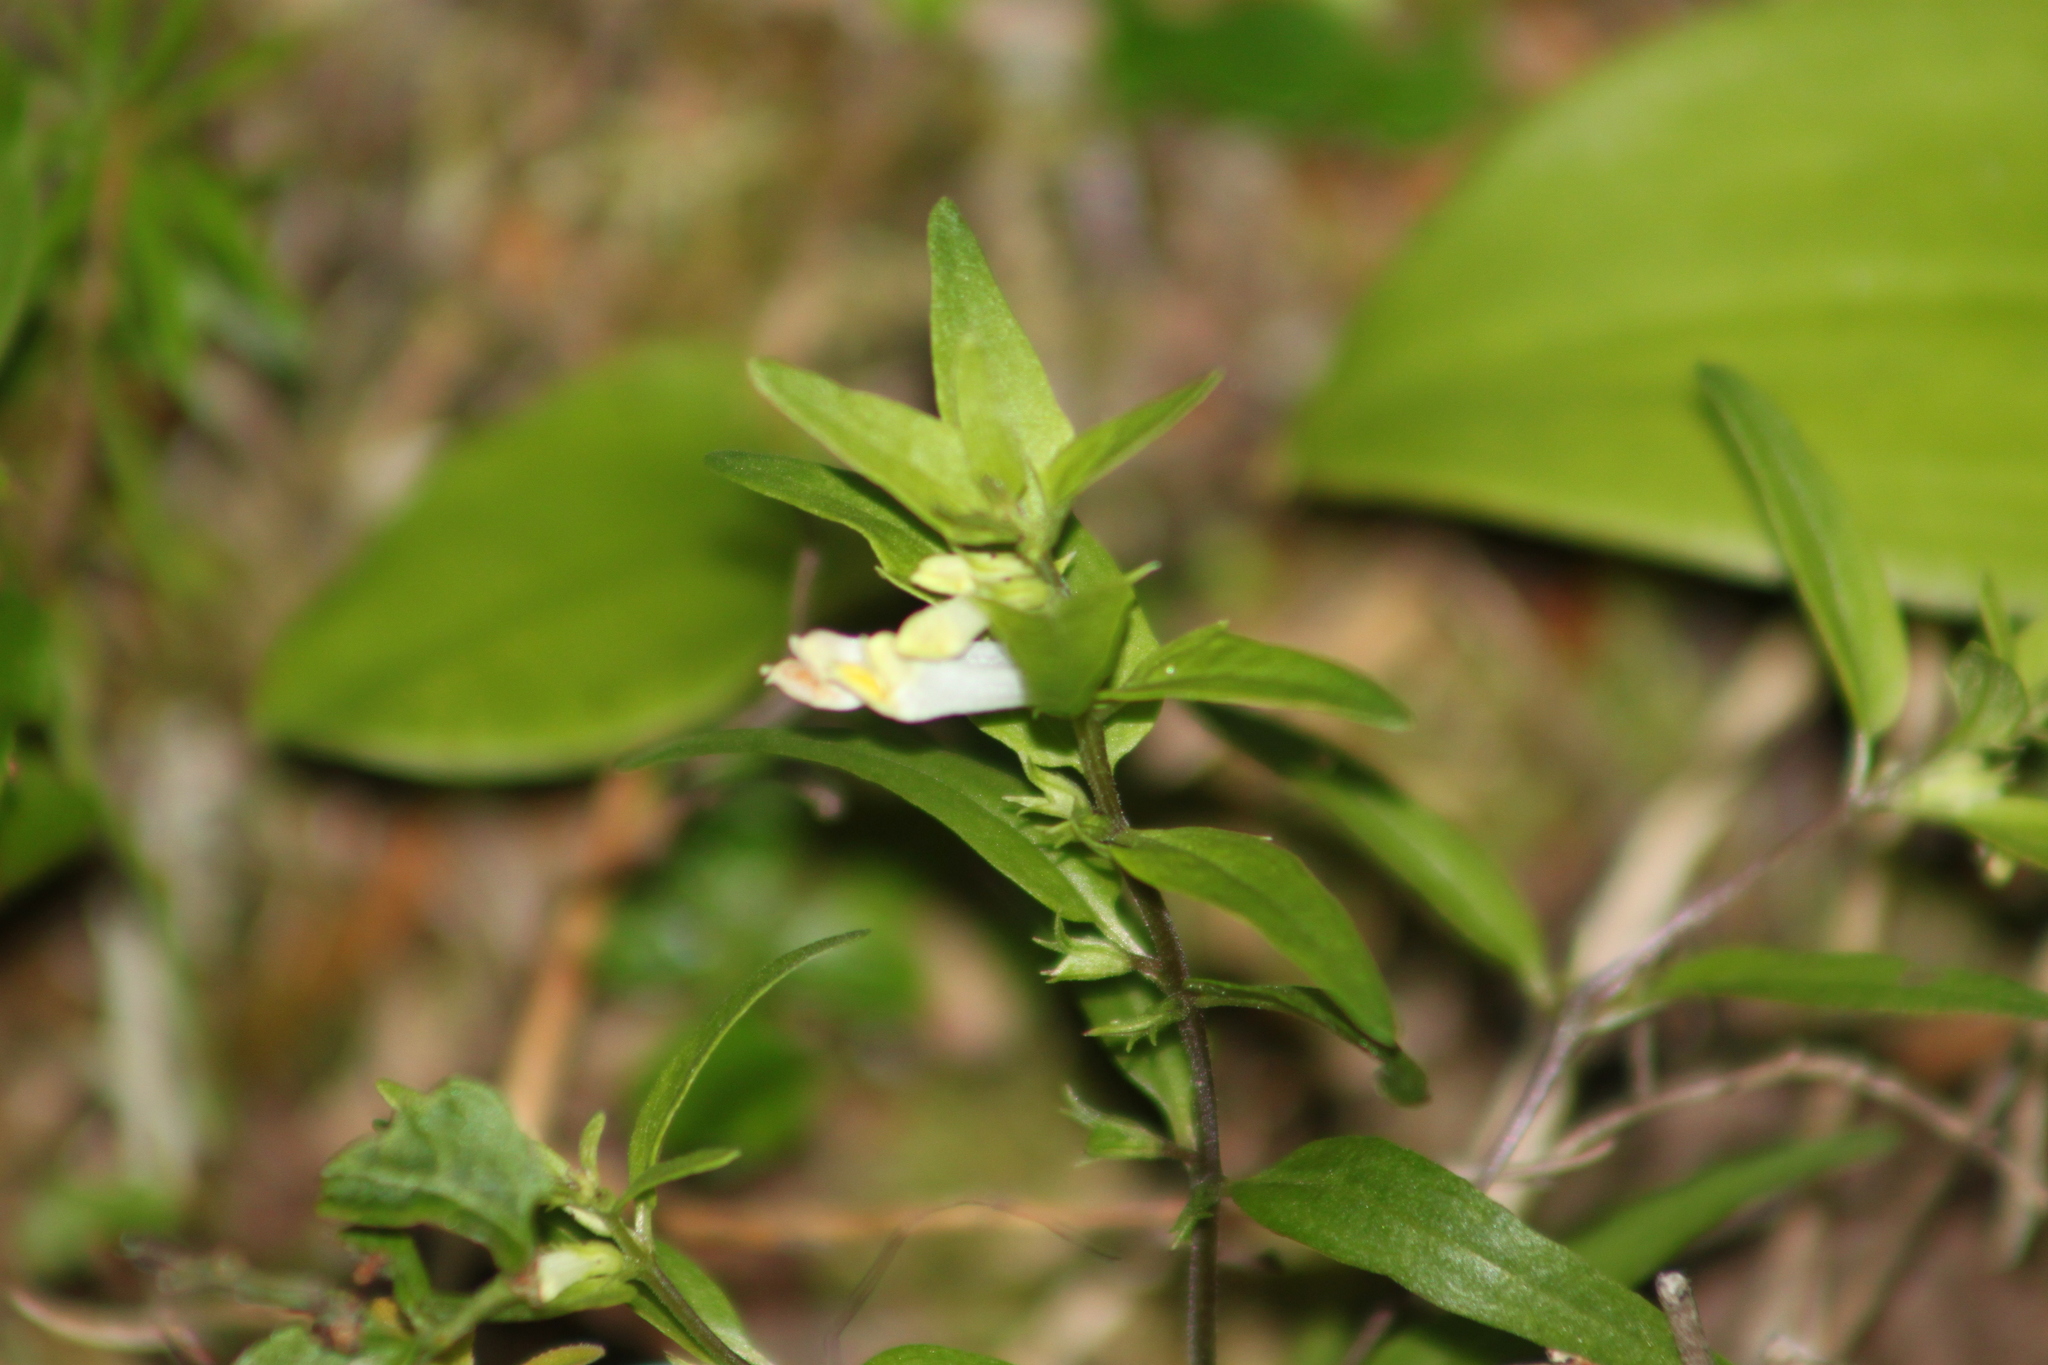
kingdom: Plantae
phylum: Tracheophyta
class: Magnoliopsida
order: Lamiales
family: Orobanchaceae
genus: Melampyrum
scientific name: Melampyrum lineare
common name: American cow-wheat
